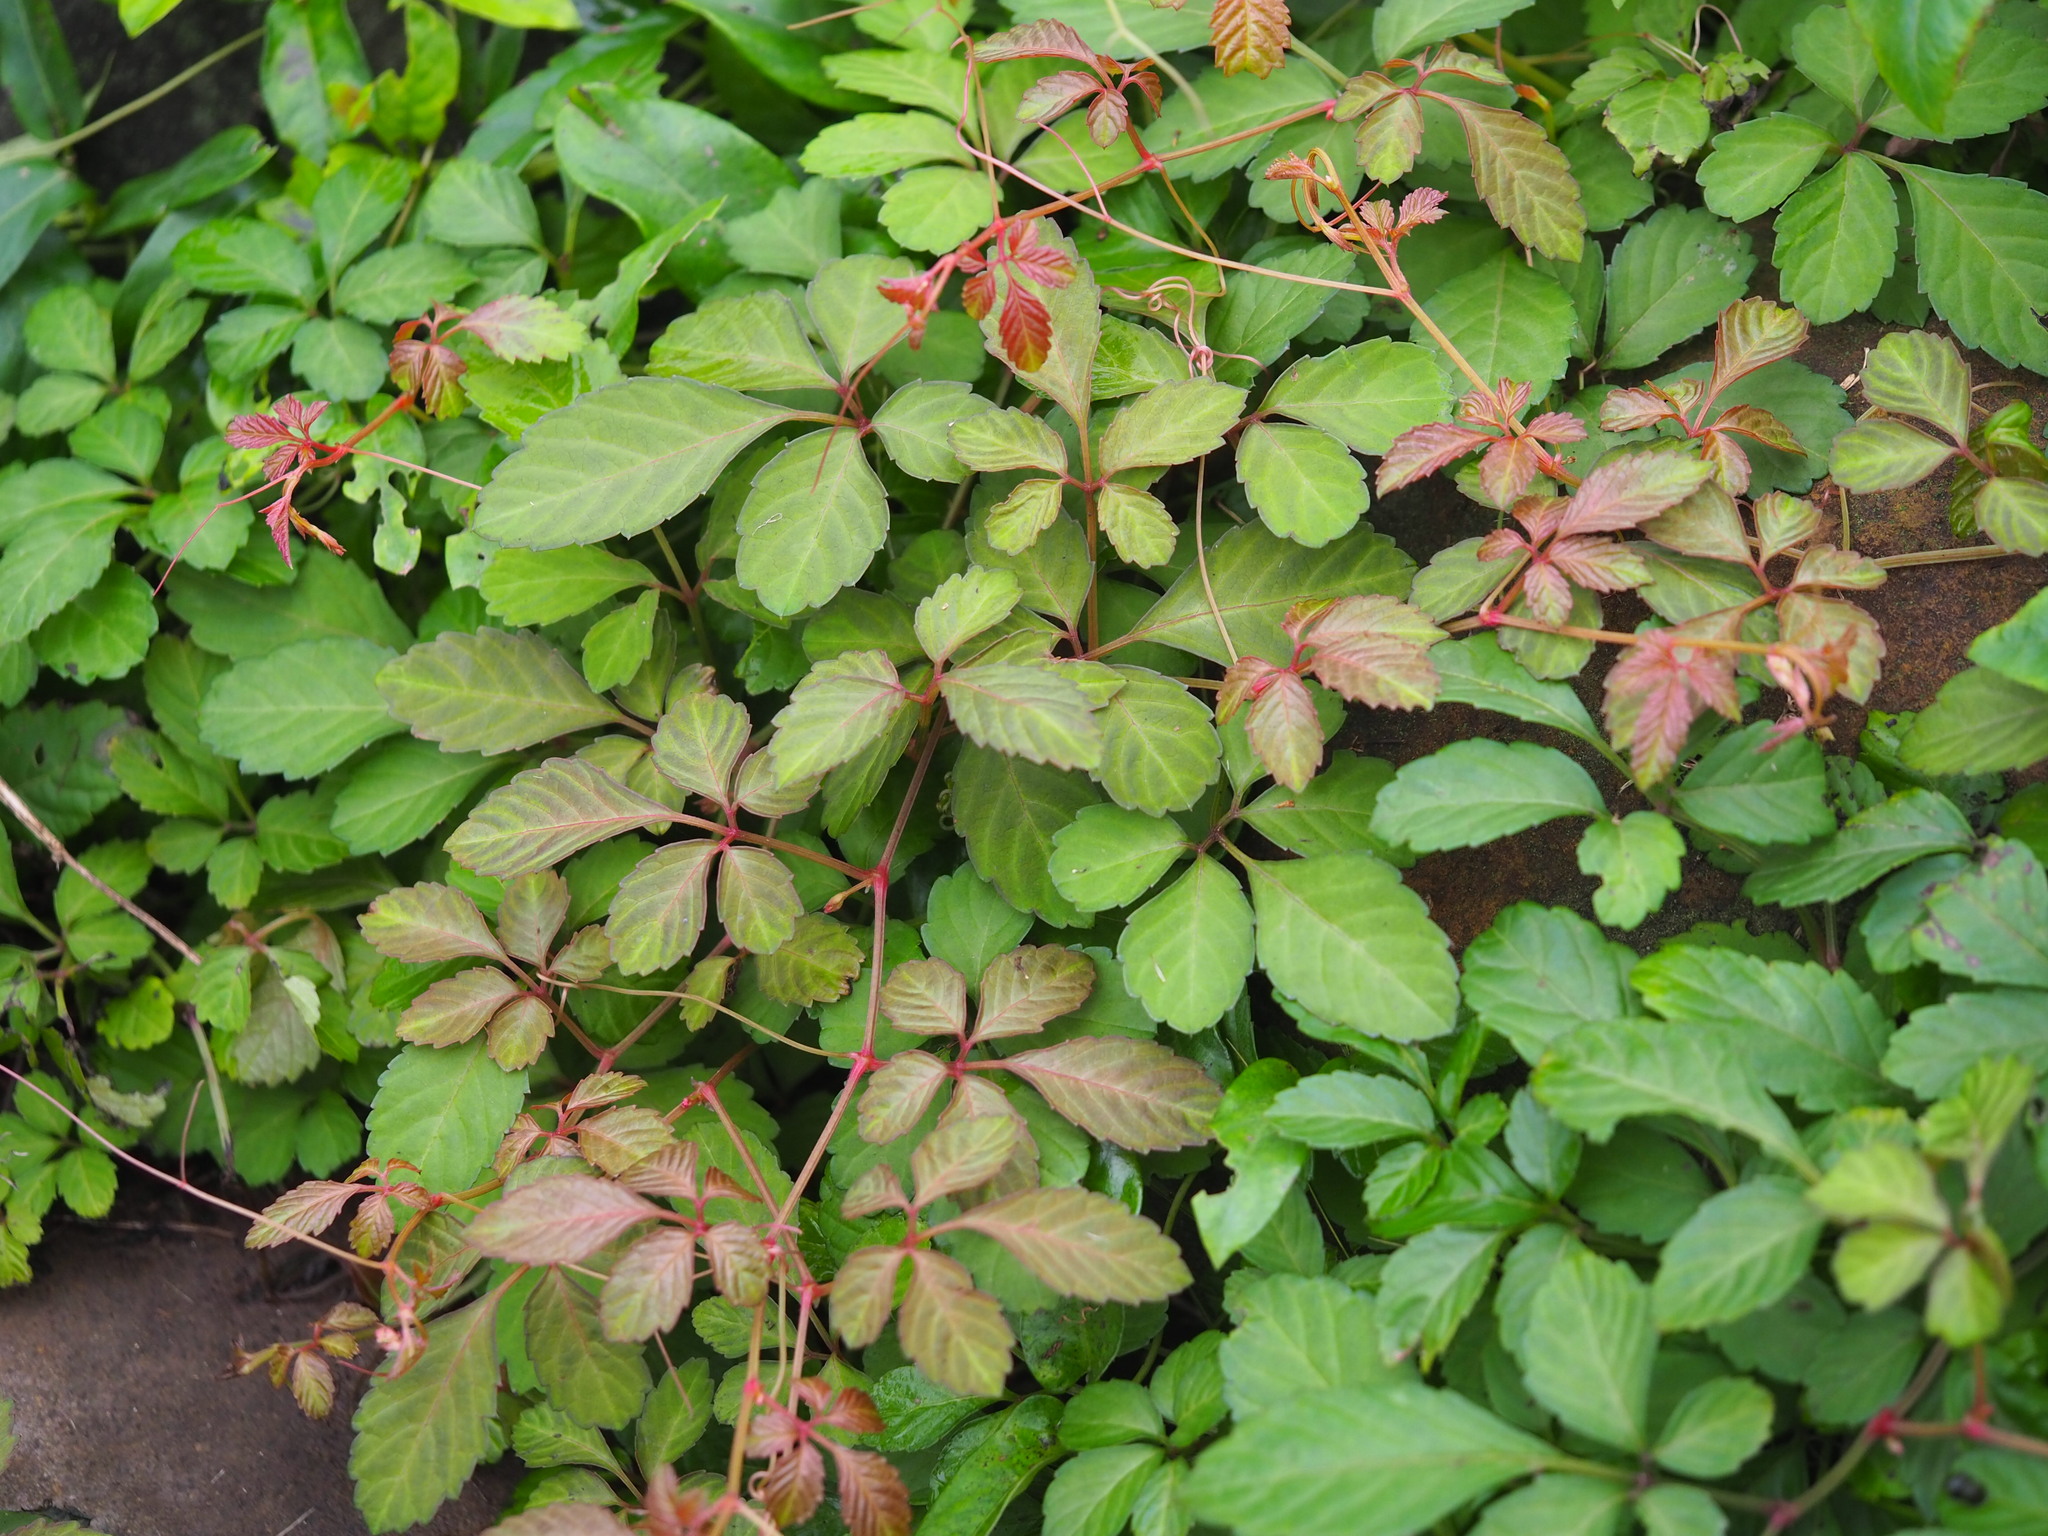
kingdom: Plantae
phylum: Tracheophyta
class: Magnoliopsida
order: Vitales
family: Vitaceae
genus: Causonis
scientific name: Causonis japonica
